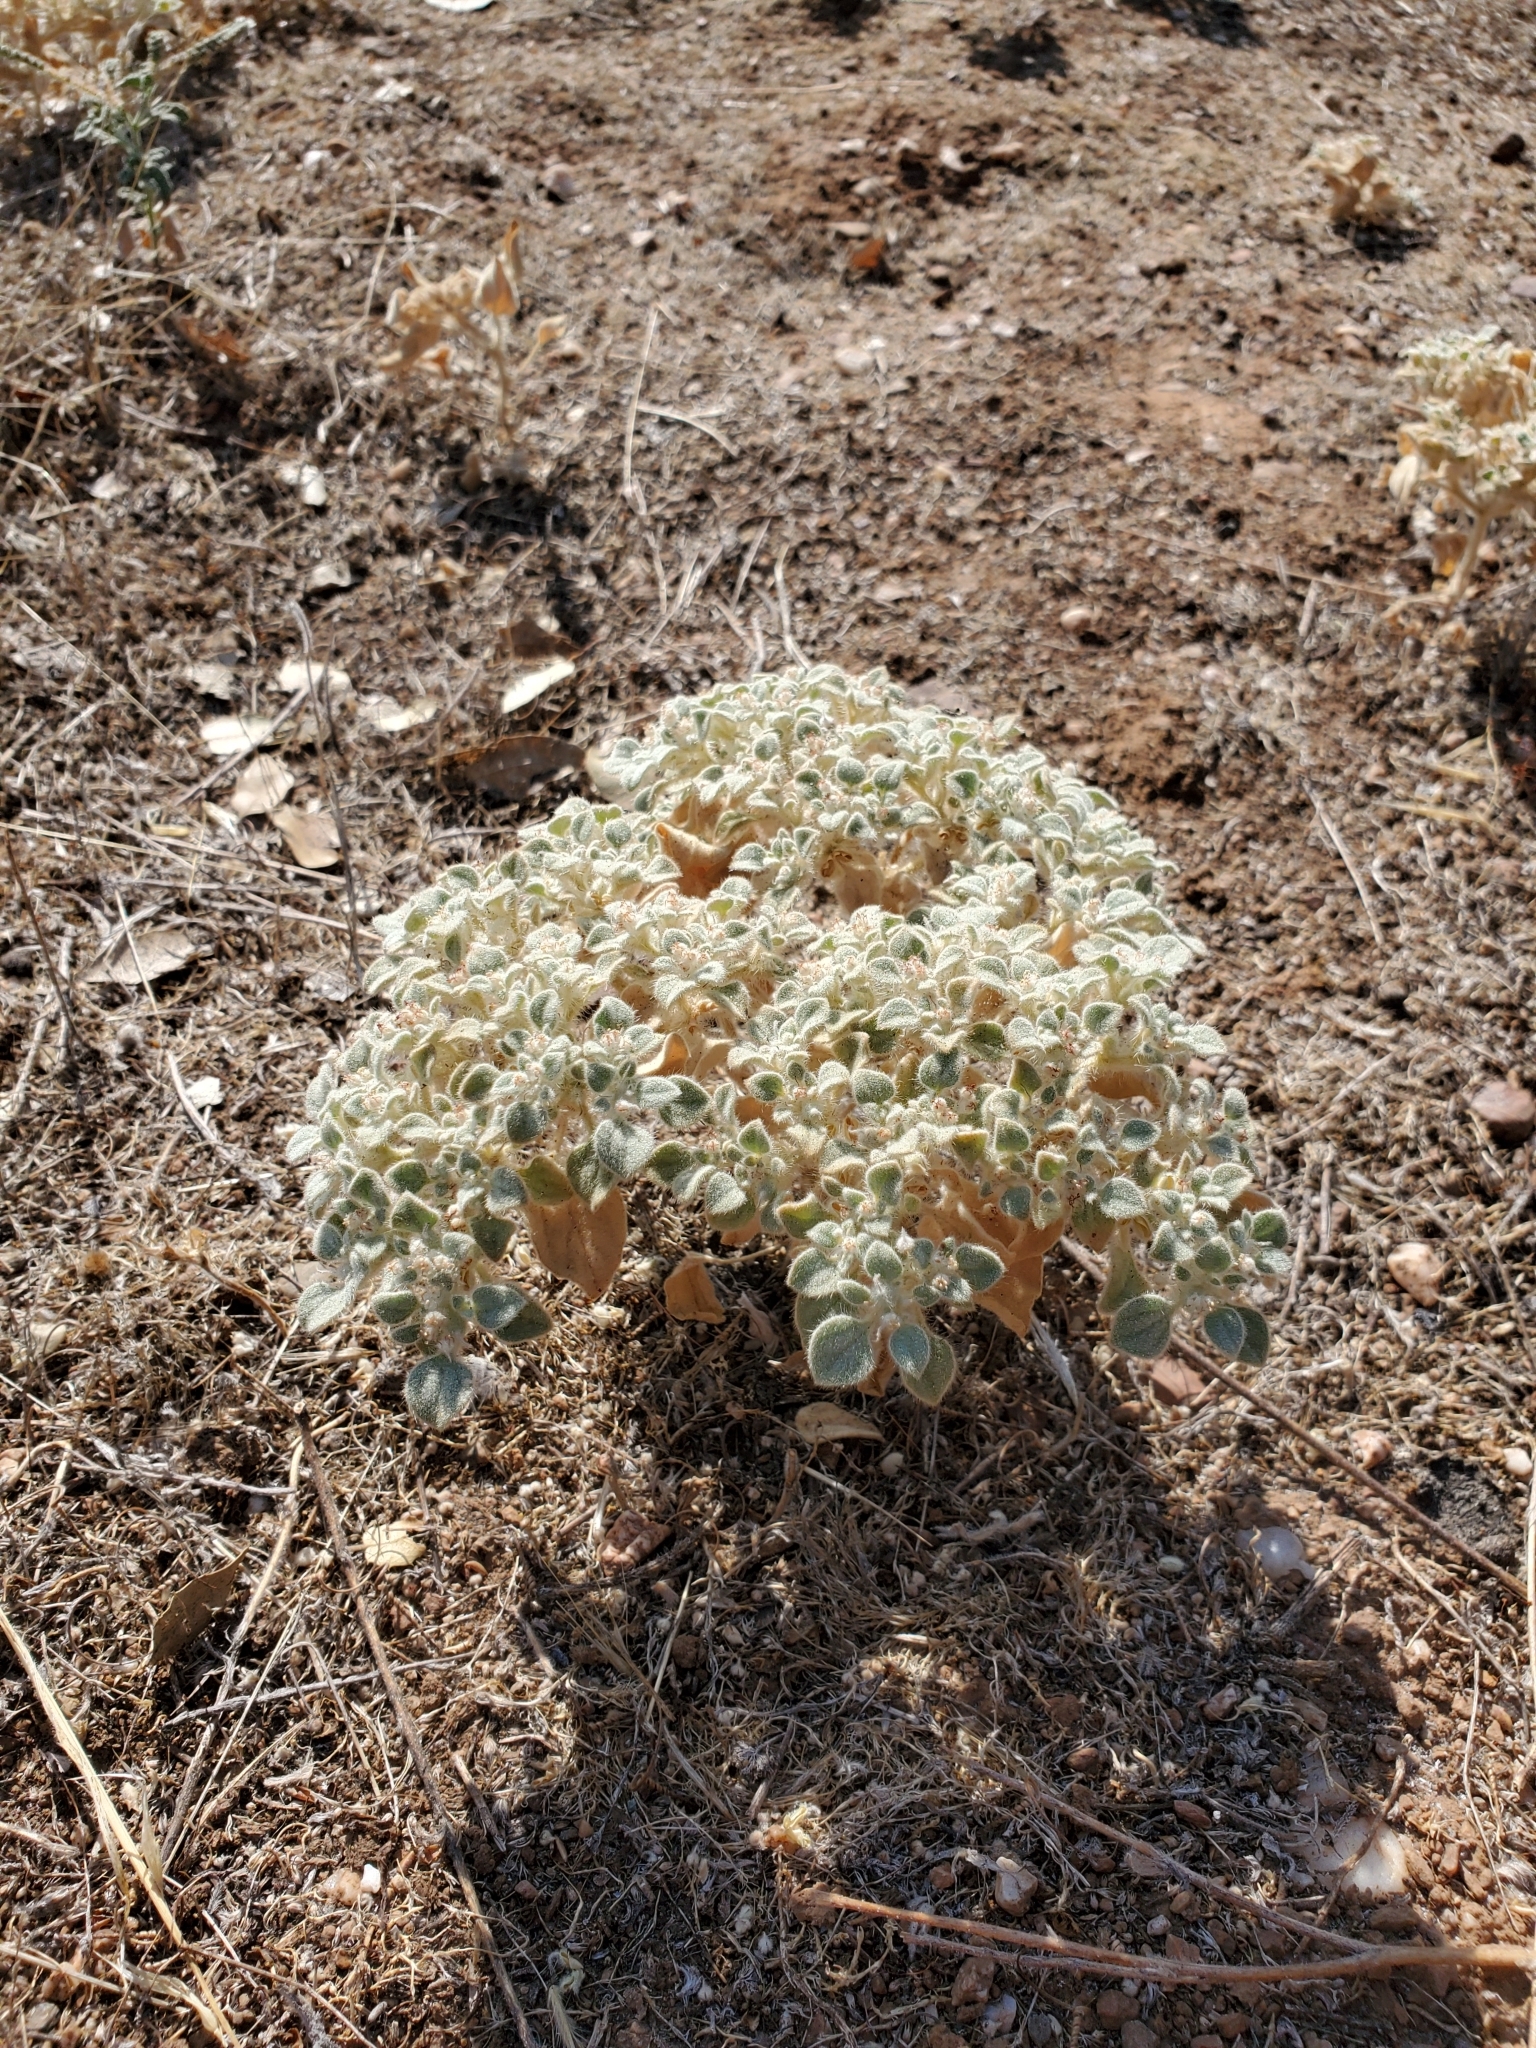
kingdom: Plantae
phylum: Tracheophyta
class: Magnoliopsida
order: Malpighiales
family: Euphorbiaceae
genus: Croton
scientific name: Croton setiger
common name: Dove weed
